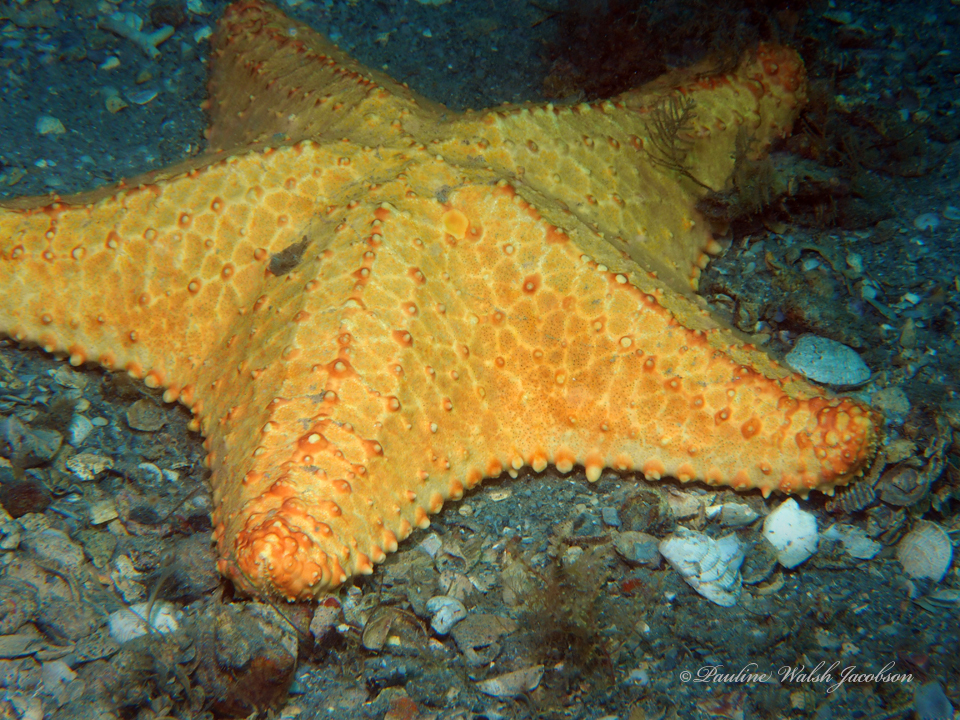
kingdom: Animalia
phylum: Echinodermata
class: Asteroidea
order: Valvatida
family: Oreasteridae
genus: Oreaster
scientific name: Oreaster reticulatus
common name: Cushion sea star
